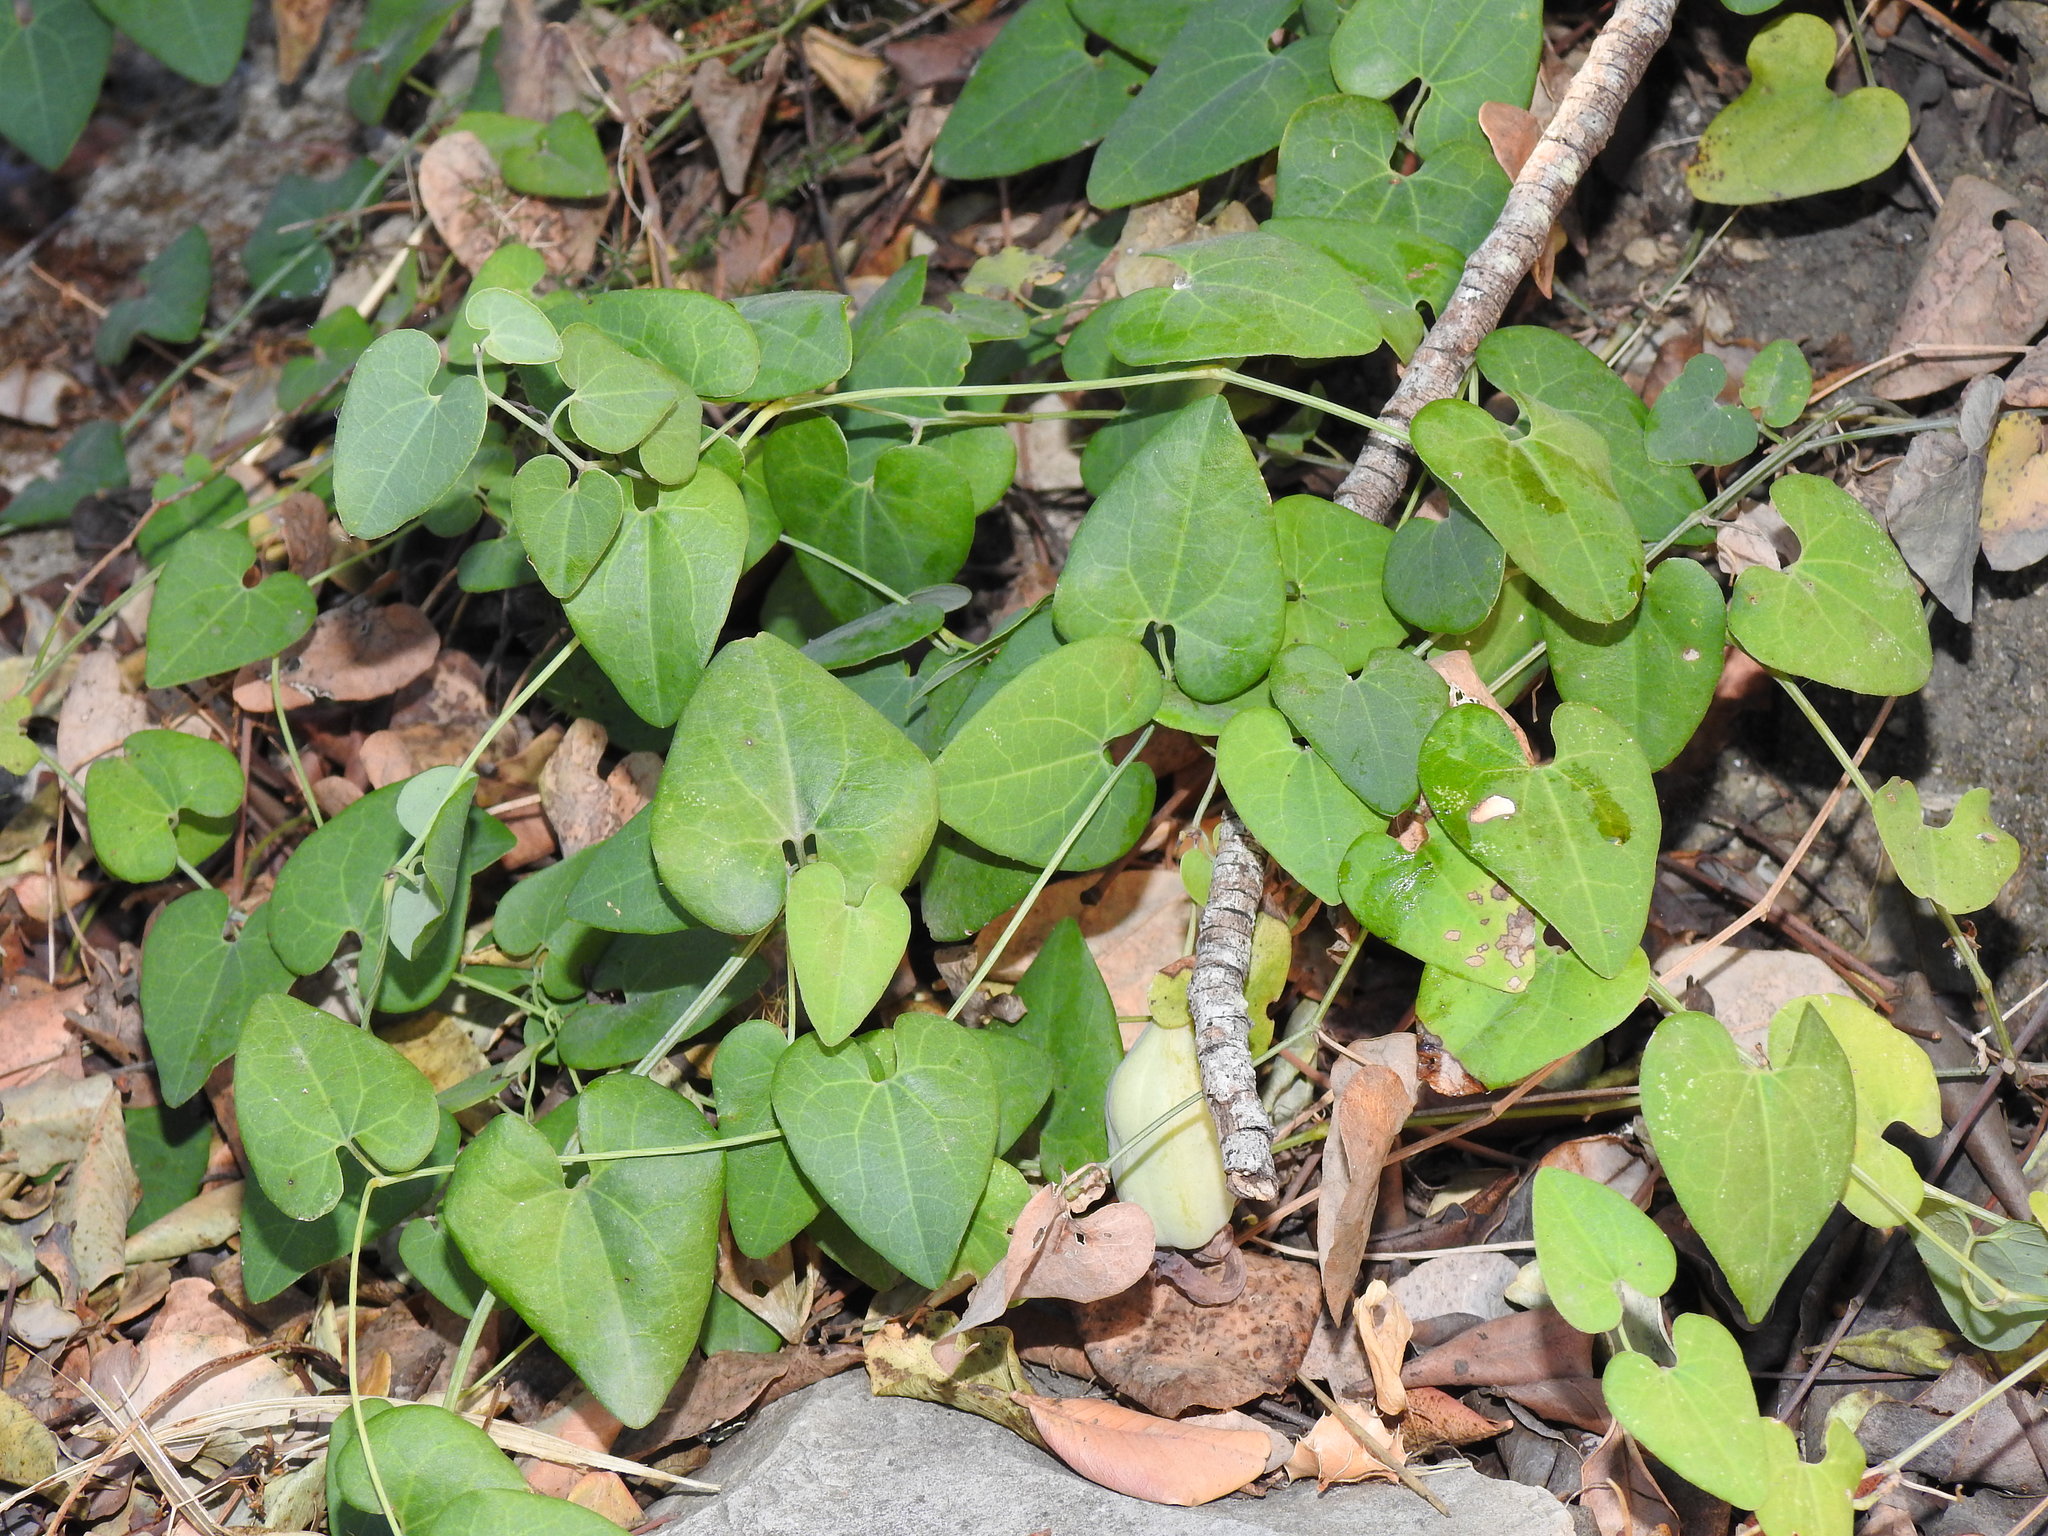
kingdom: Plantae
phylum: Tracheophyta
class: Magnoliopsida
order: Piperales
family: Aristolochiaceae
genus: Aristolochia
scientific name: Aristolochia baetica
